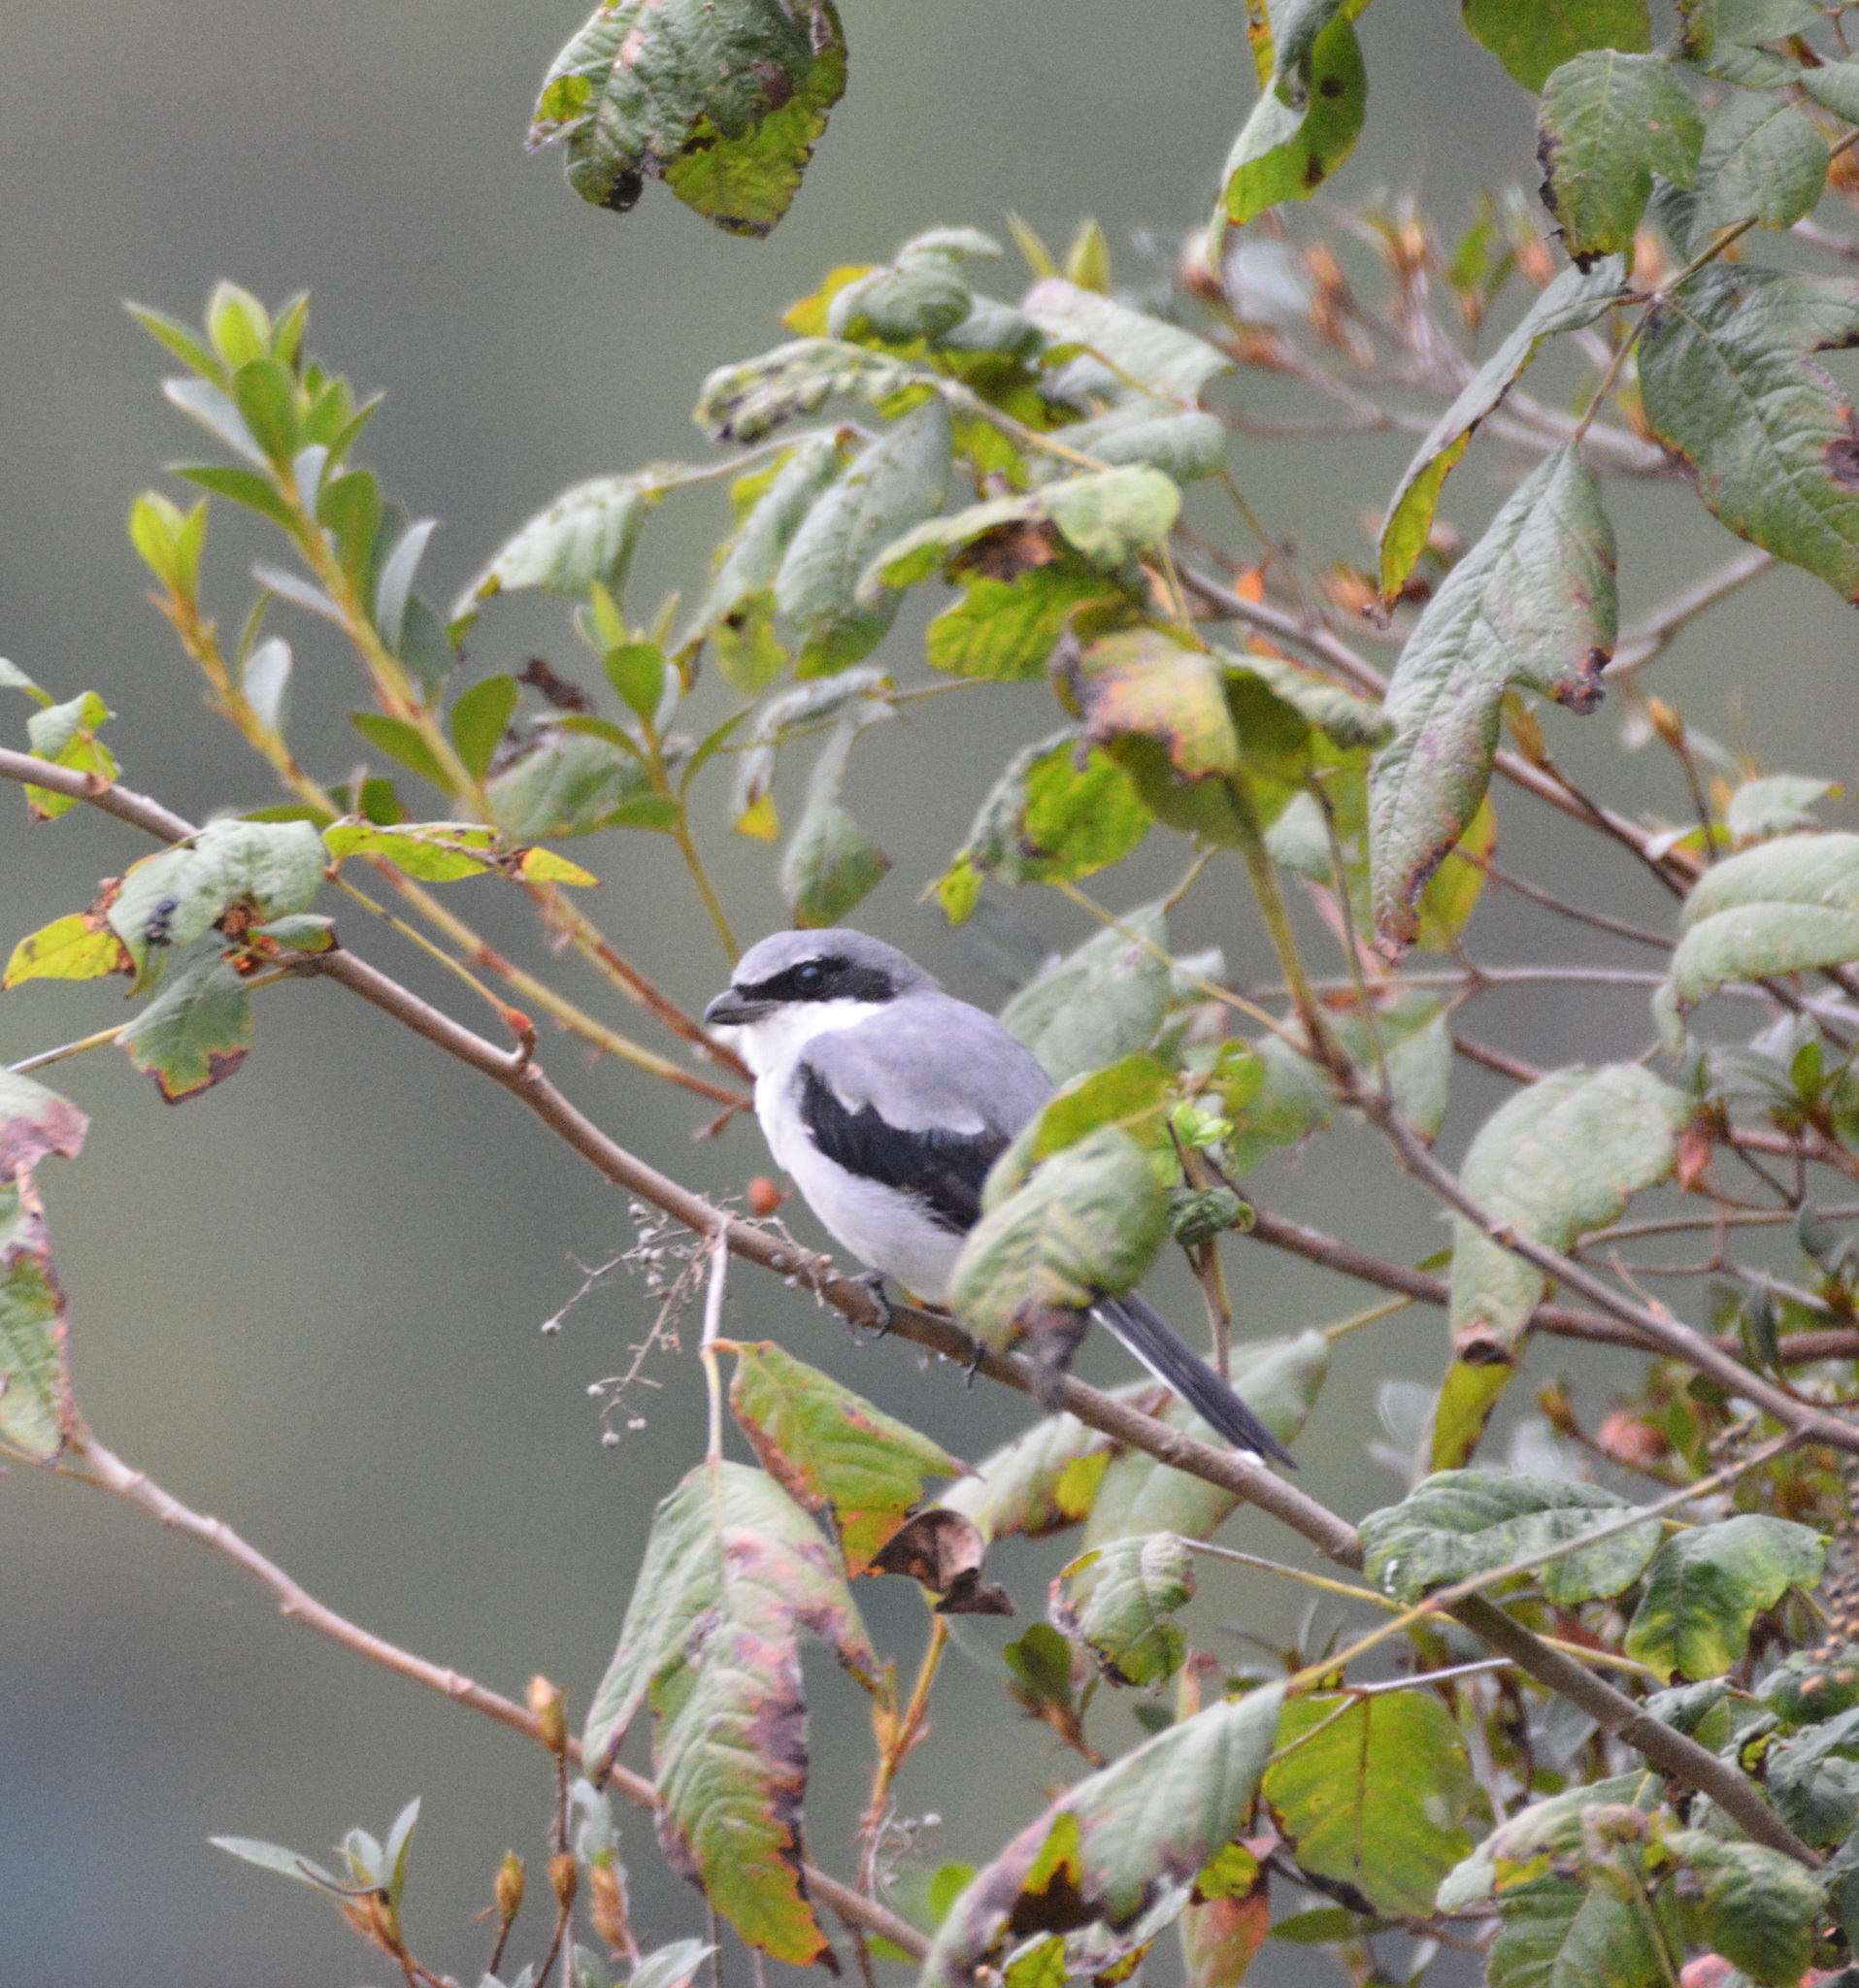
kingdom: Animalia
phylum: Chordata
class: Aves
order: Passeriformes
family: Laniidae
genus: Lanius
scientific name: Lanius ludovicianus
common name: Loggerhead shrike
